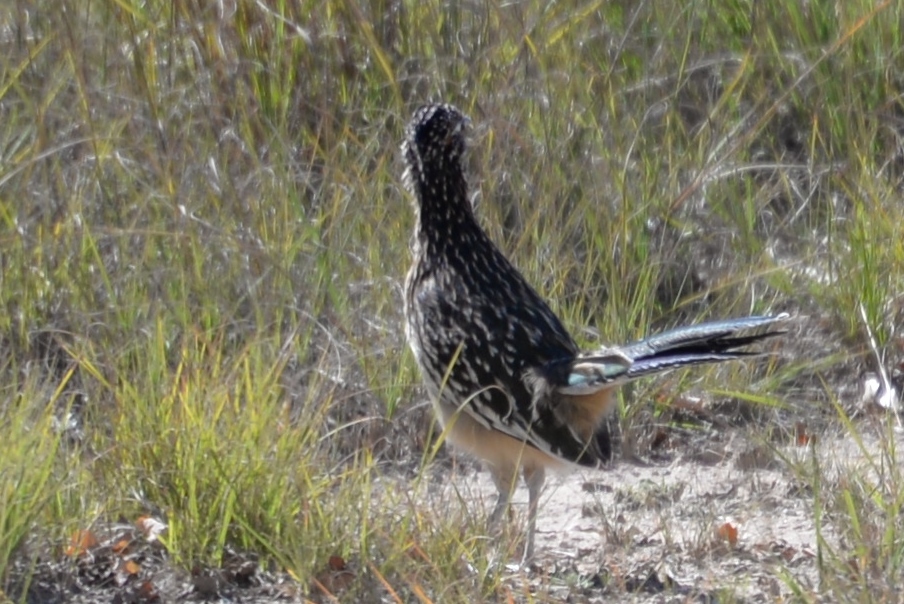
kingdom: Animalia
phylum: Chordata
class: Aves
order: Cuculiformes
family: Cuculidae
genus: Geococcyx
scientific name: Geococcyx californianus
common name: Greater roadrunner
